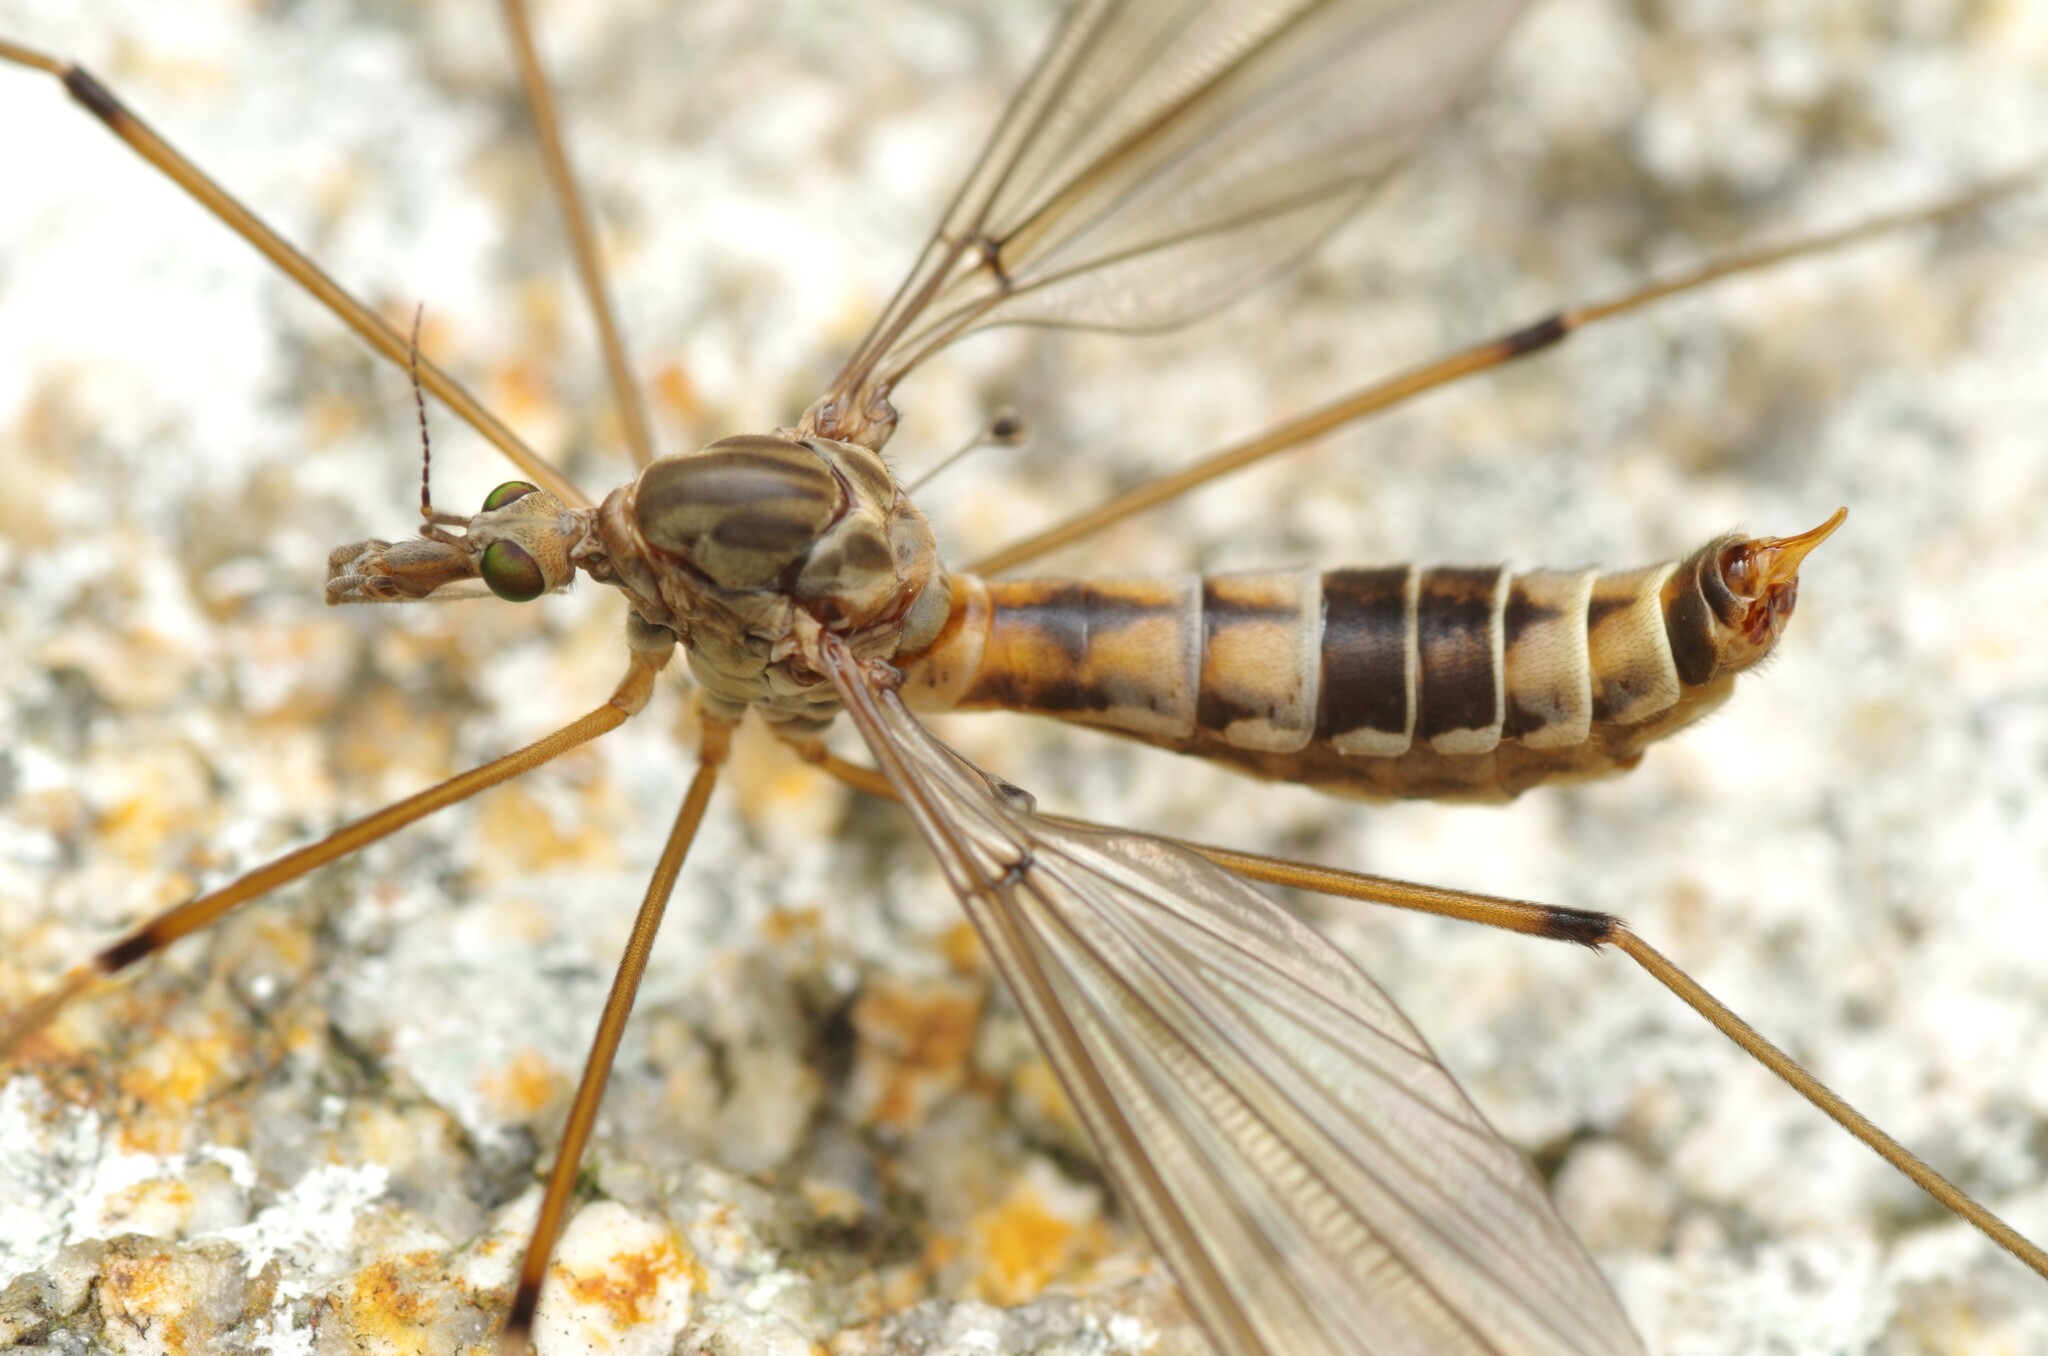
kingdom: Animalia
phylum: Arthropoda
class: Insecta
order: Diptera
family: Tipulidae
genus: Tipula
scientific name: Tipula pilicauda
